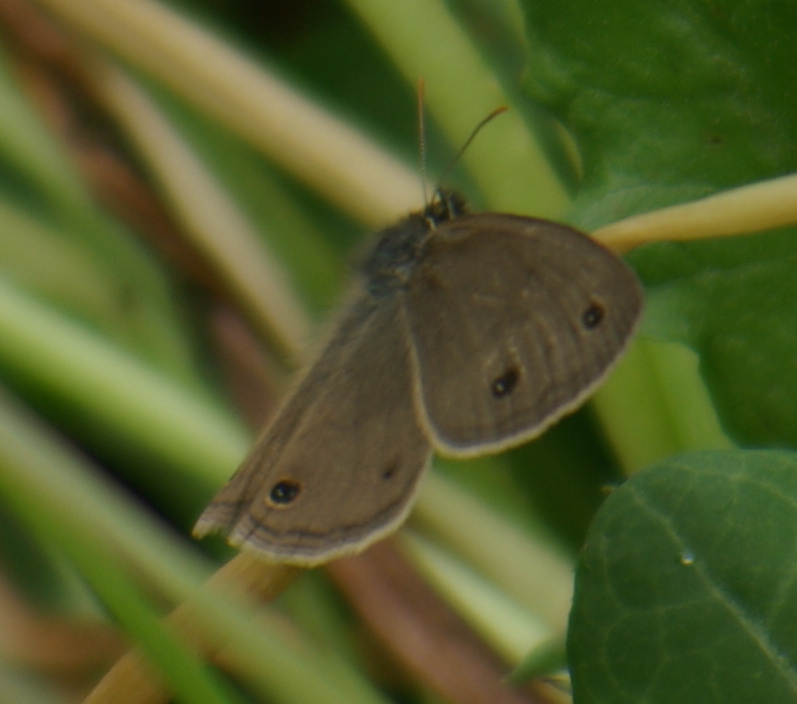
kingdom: Animalia
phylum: Arthropoda
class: Insecta
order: Lepidoptera
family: Nymphalidae
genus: Euptychia
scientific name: Euptychia cymela
